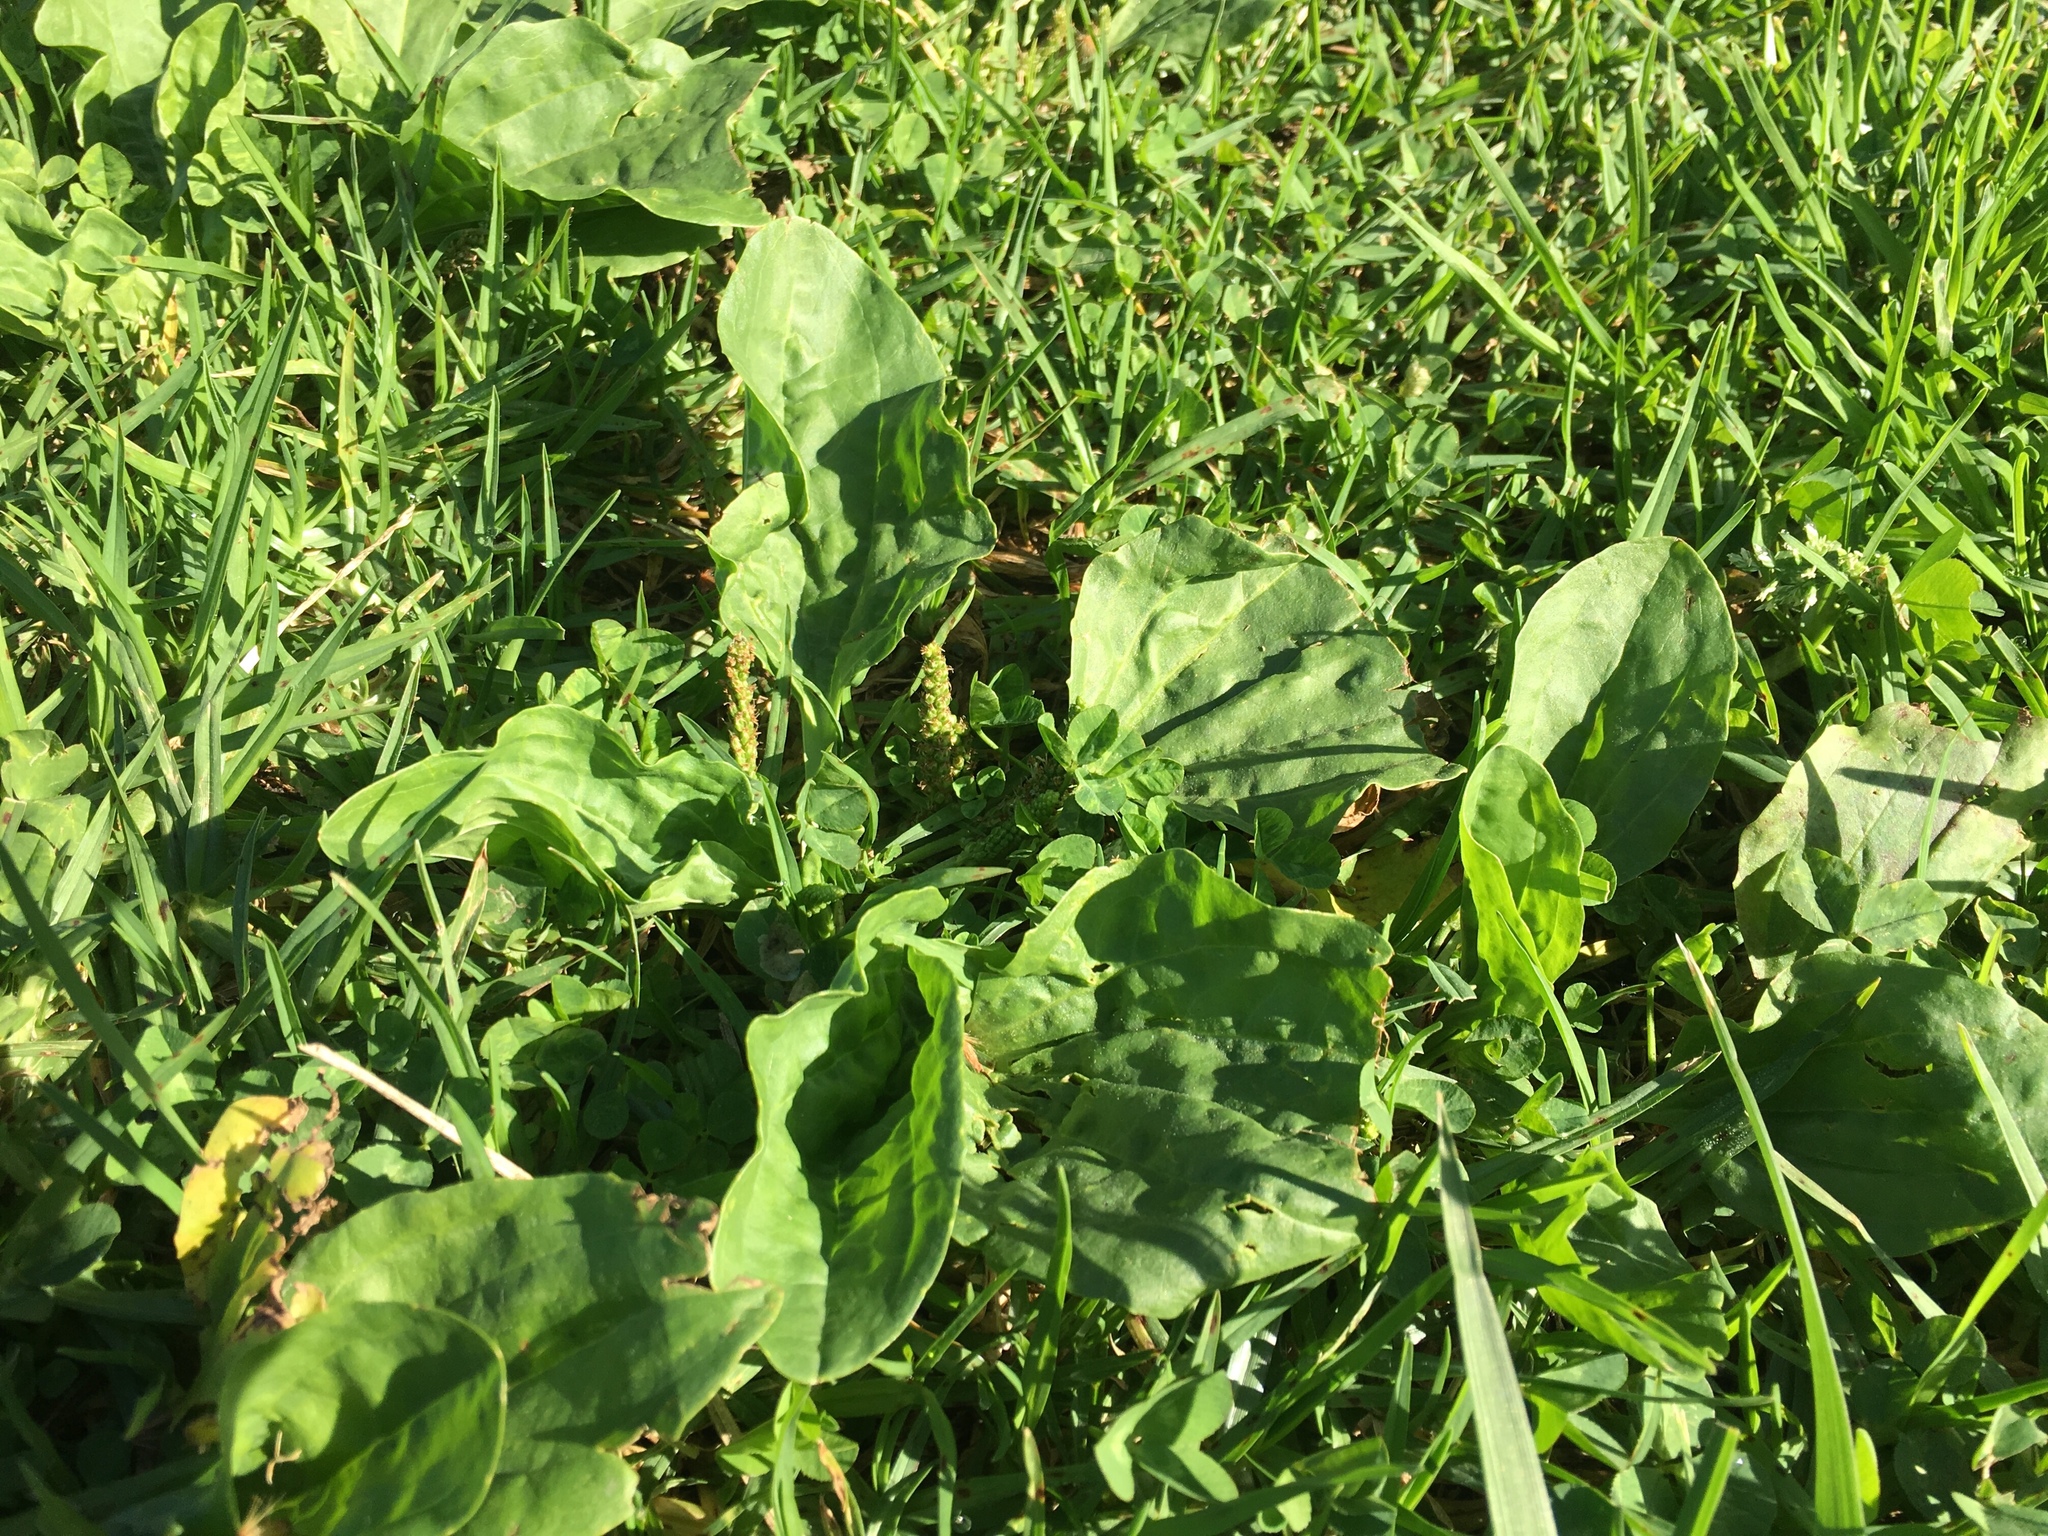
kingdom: Plantae
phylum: Tracheophyta
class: Magnoliopsida
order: Lamiales
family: Plantaginaceae
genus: Plantago
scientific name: Plantago major
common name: Common plantain
